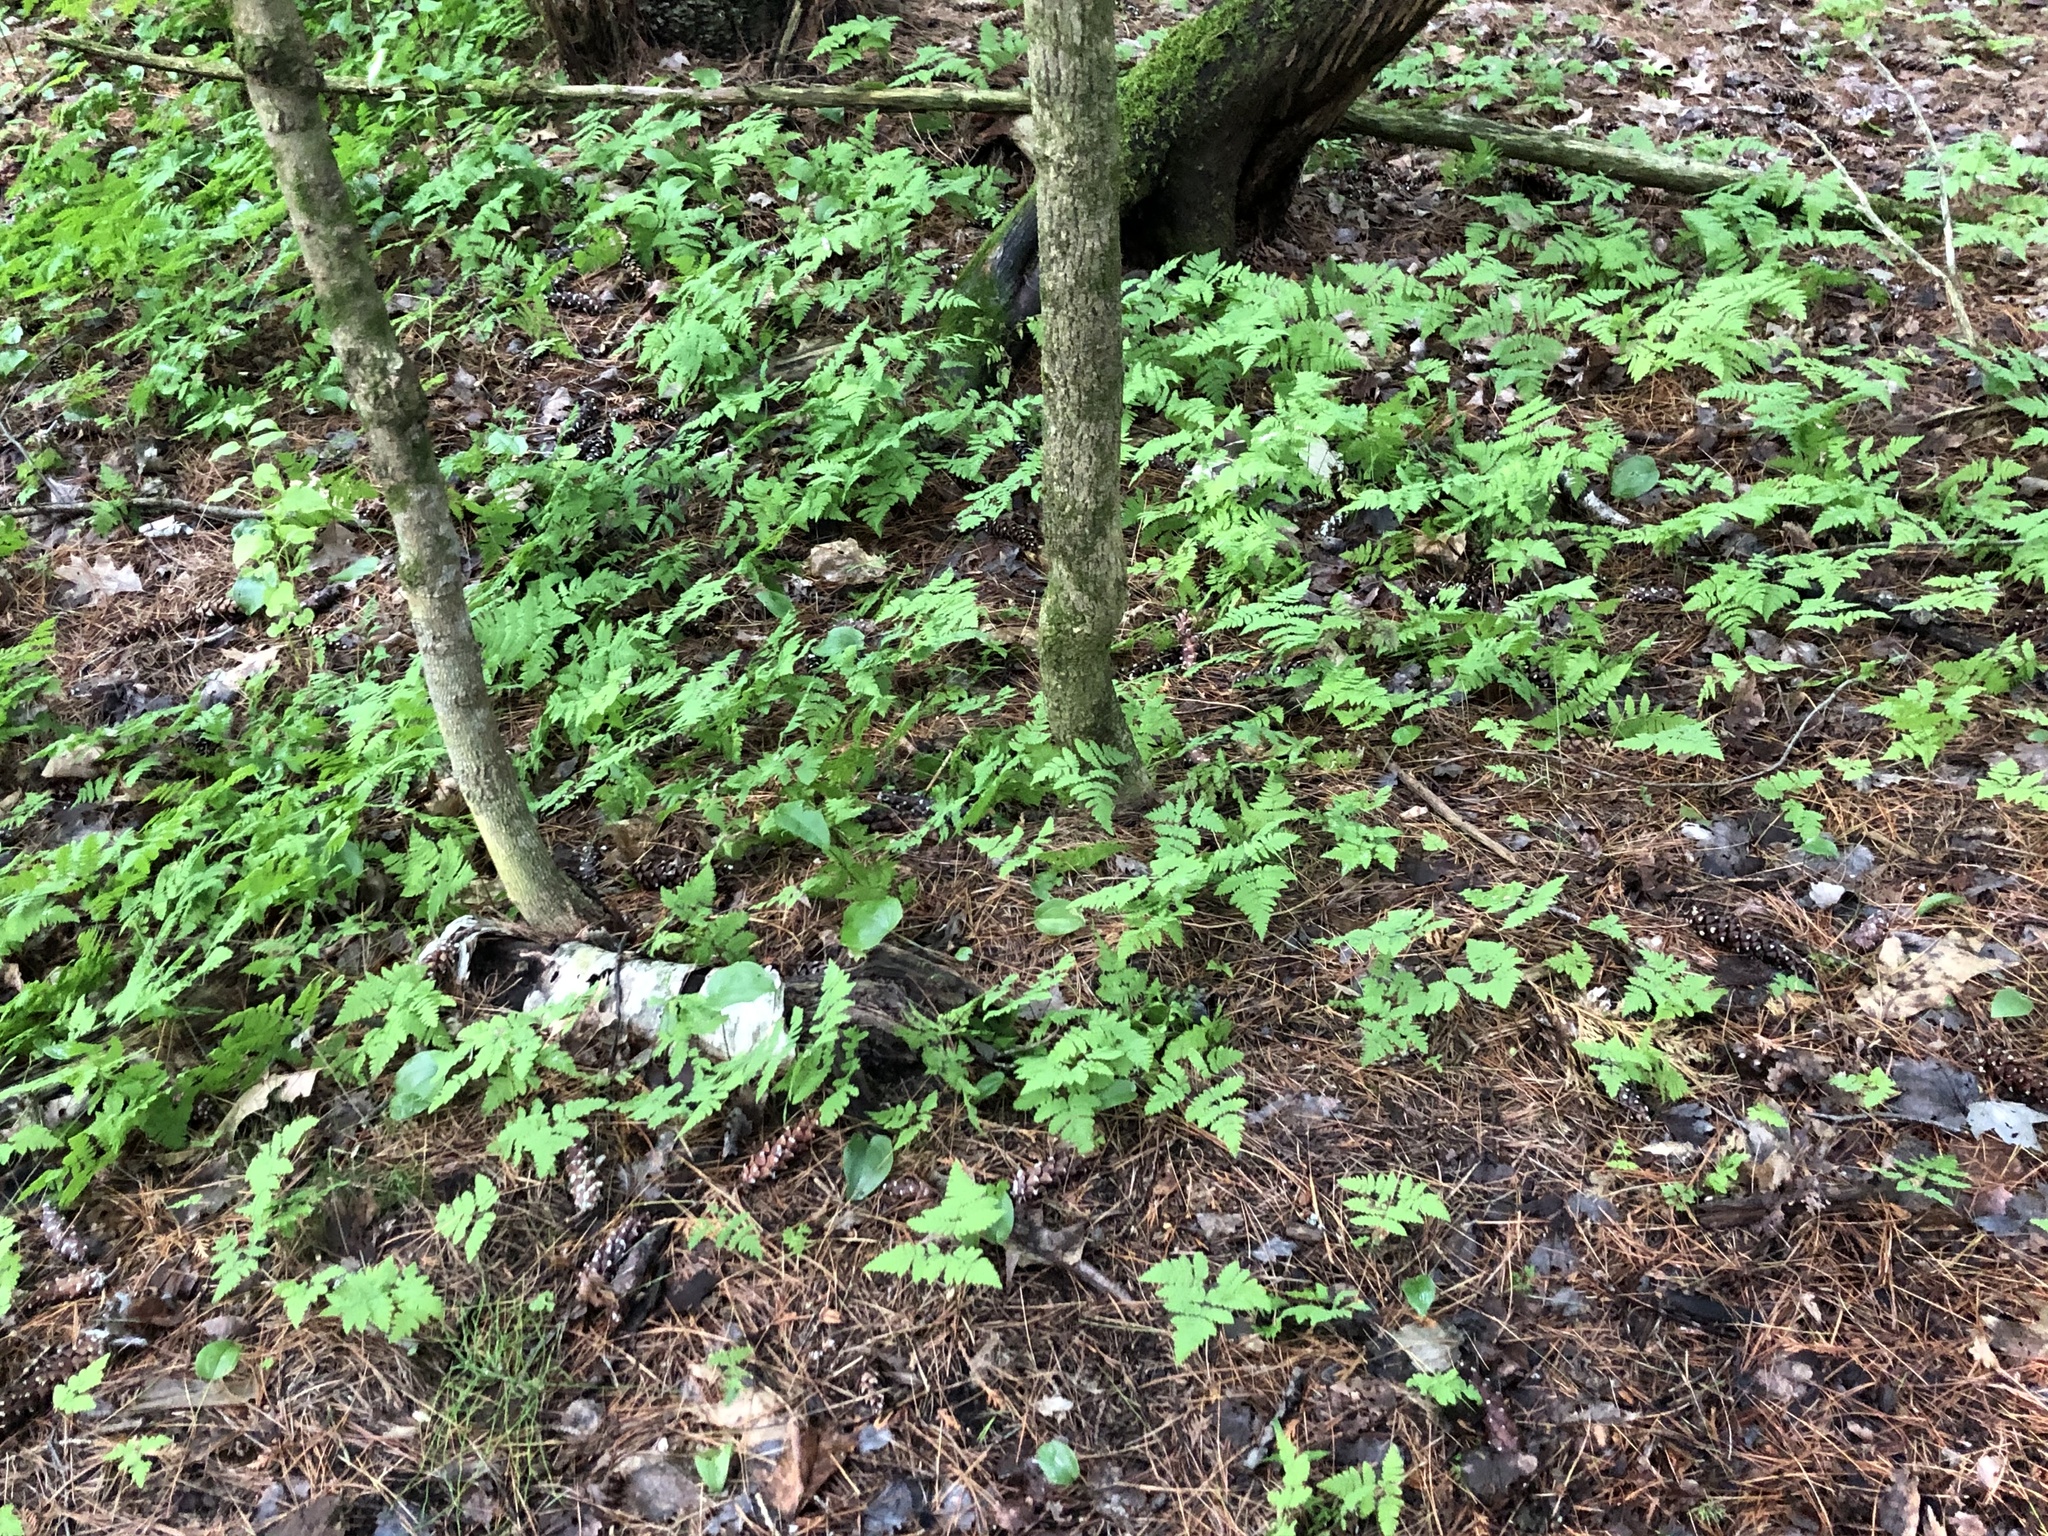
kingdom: Plantae
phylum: Tracheophyta
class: Polypodiopsida
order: Polypodiales
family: Cystopteridaceae
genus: Gymnocarpium
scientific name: Gymnocarpium dryopteris
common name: Oak fern
